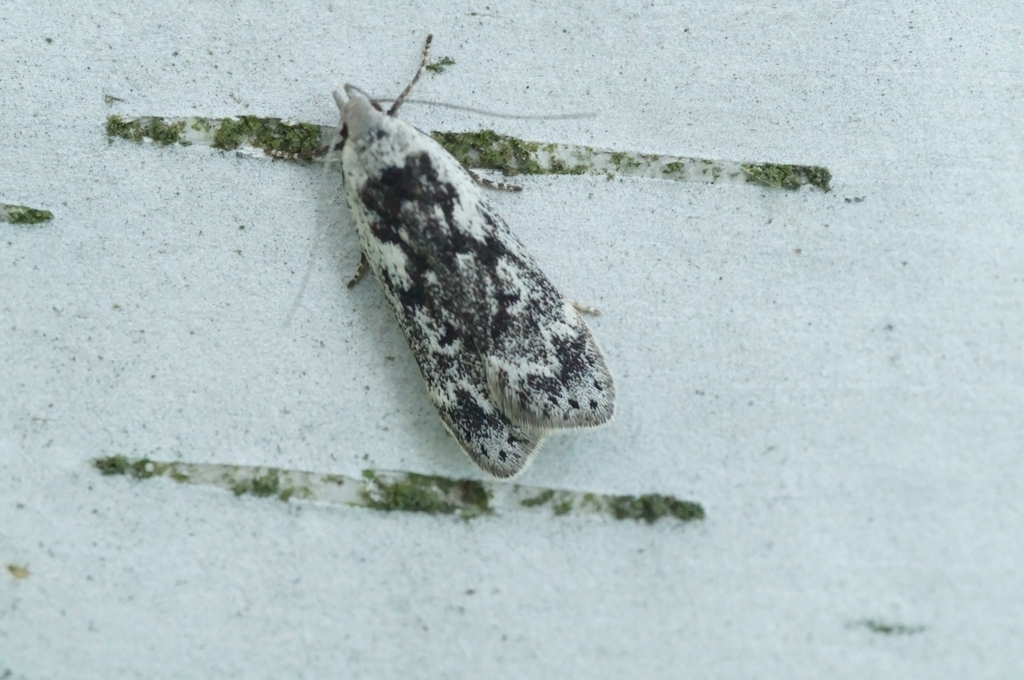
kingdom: Animalia
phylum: Arthropoda
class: Insecta
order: Lepidoptera
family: Gelechiidae
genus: Anacampsis
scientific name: Anacampsis blattariella
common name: Birch sober
